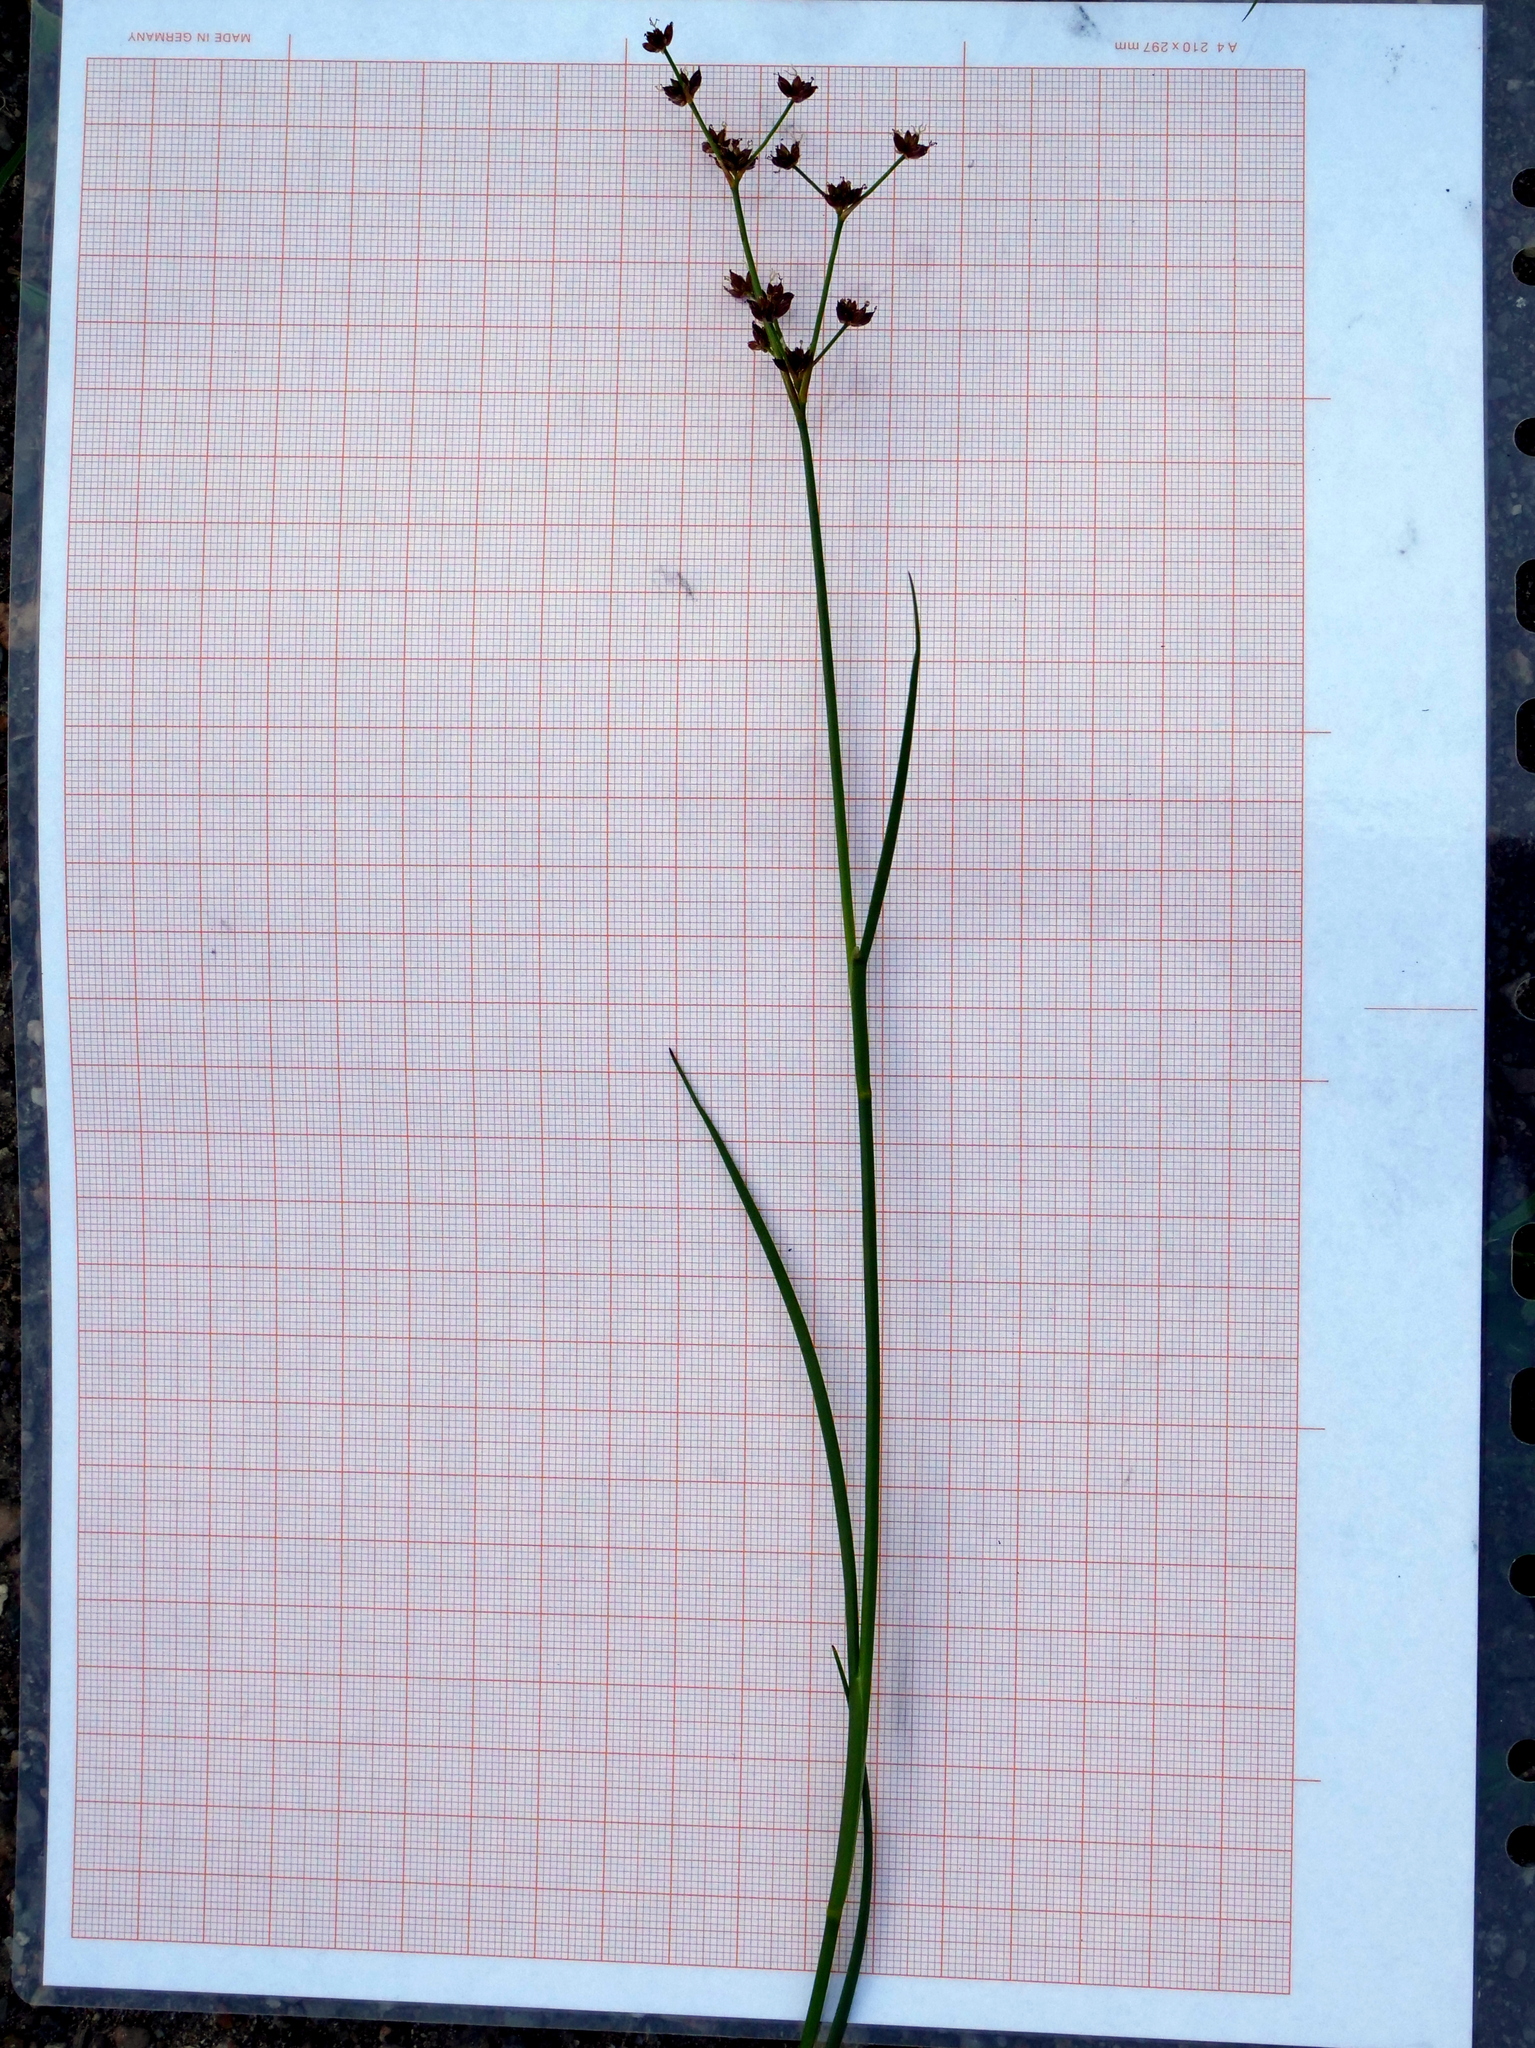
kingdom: Plantae
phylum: Tracheophyta
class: Liliopsida
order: Poales
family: Juncaceae
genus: Juncus
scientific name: Juncus articulatus
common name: Jointed rush
